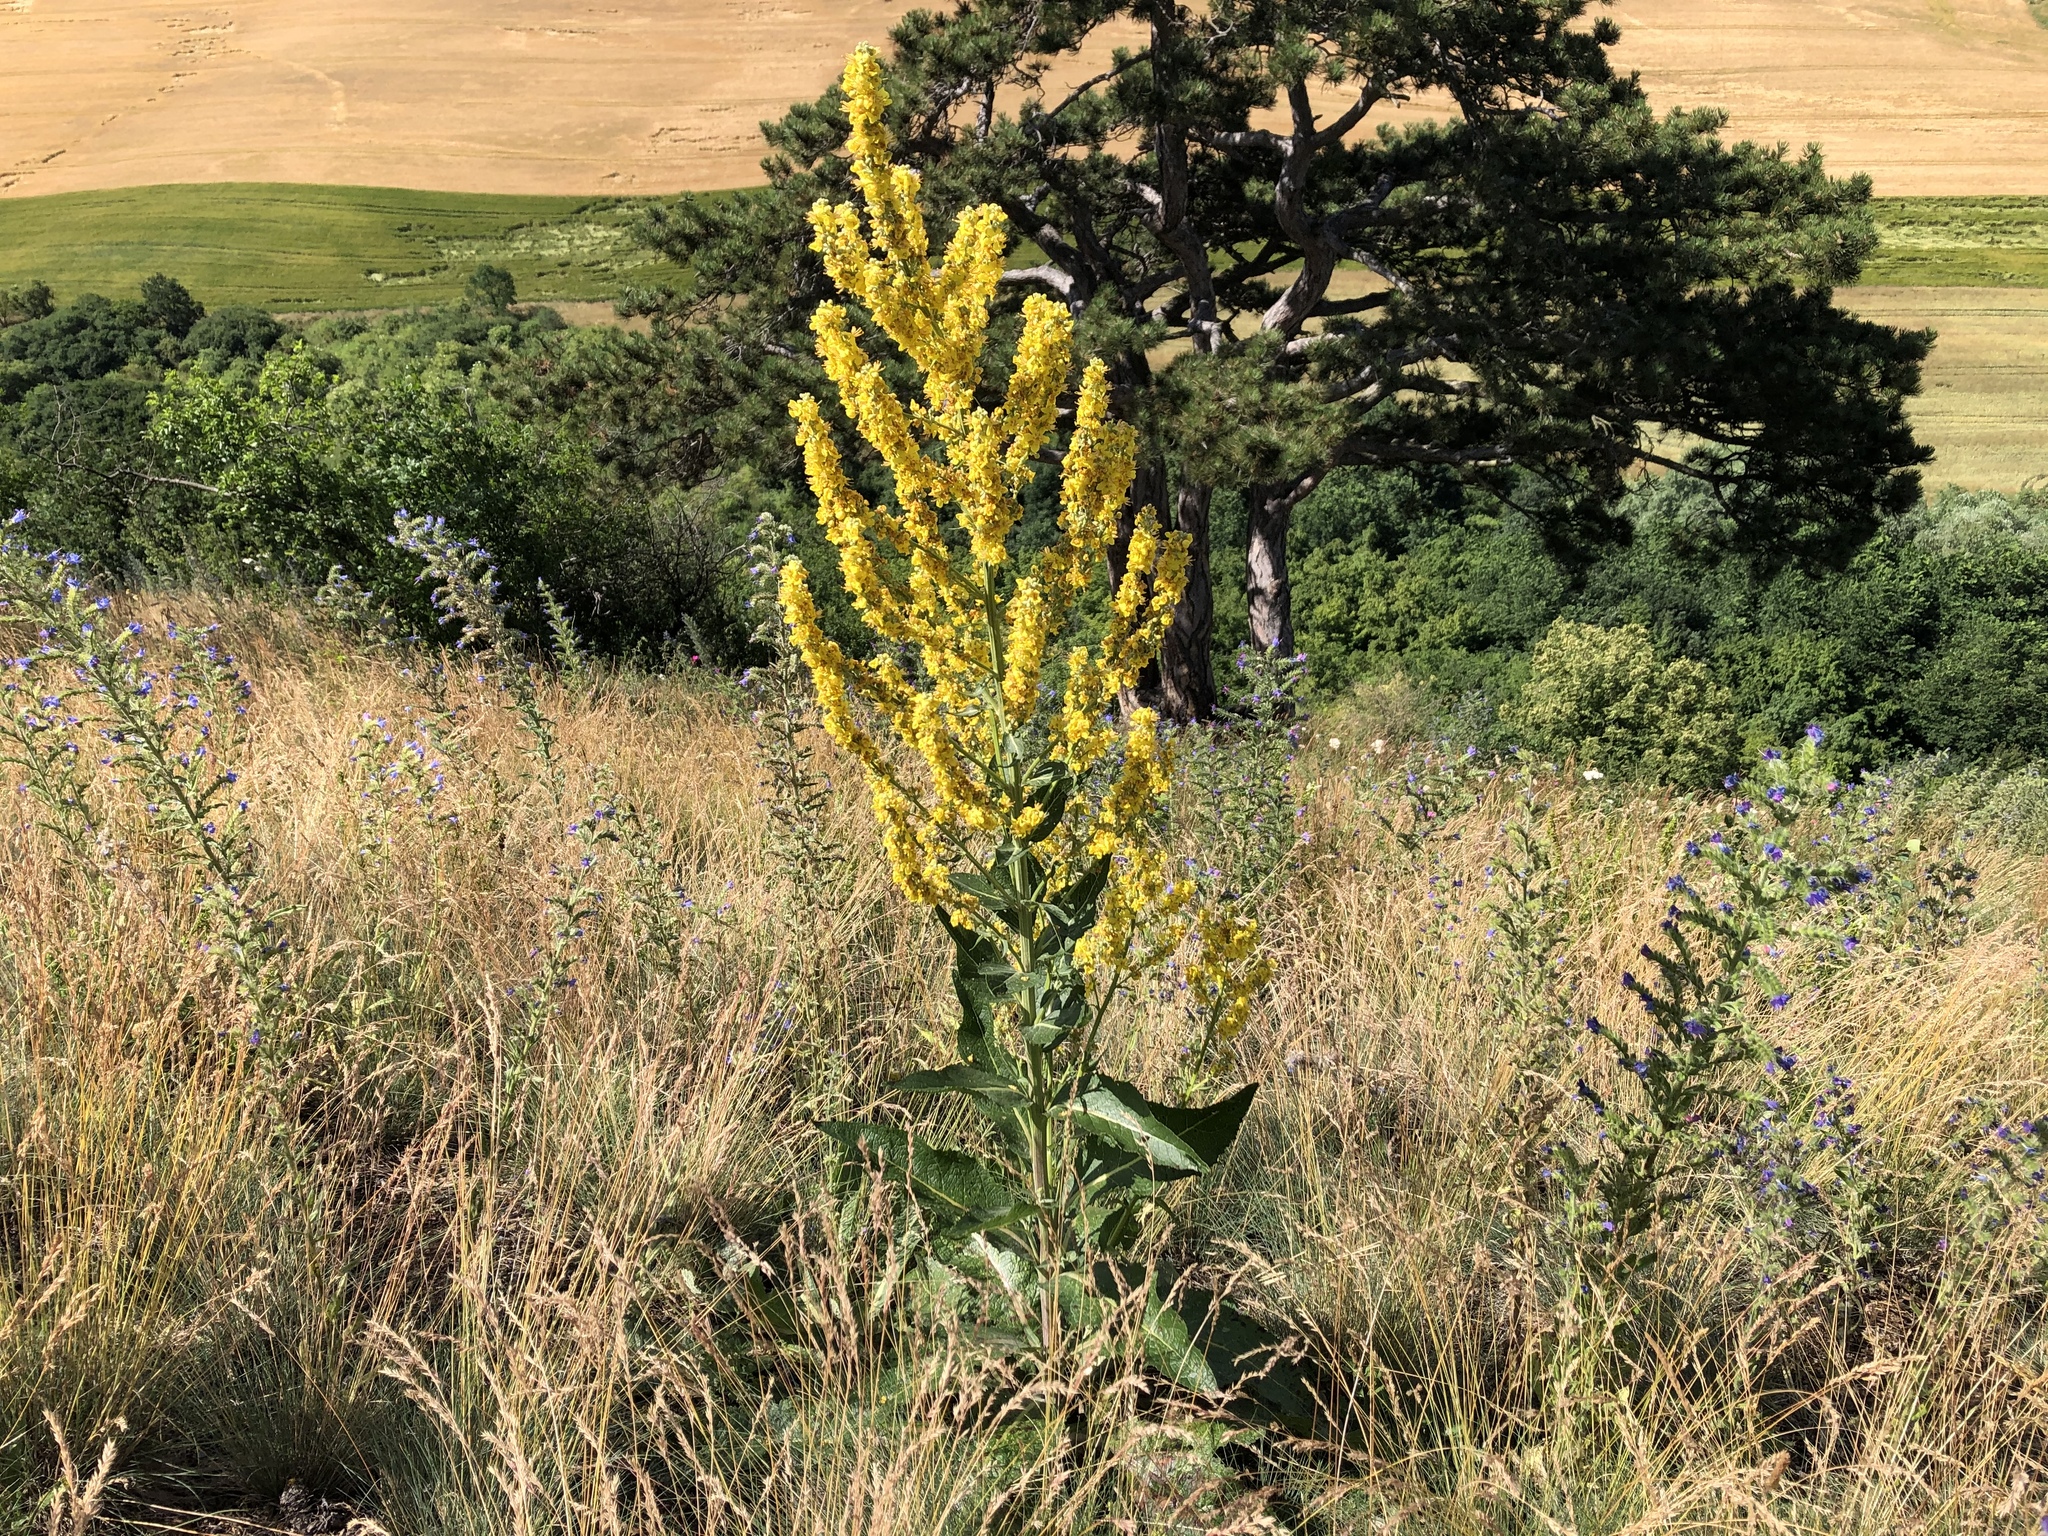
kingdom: Plantae
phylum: Tracheophyta
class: Magnoliopsida
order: Lamiales
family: Scrophulariaceae
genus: Verbascum
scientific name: Verbascum lychnitis
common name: White mullein
